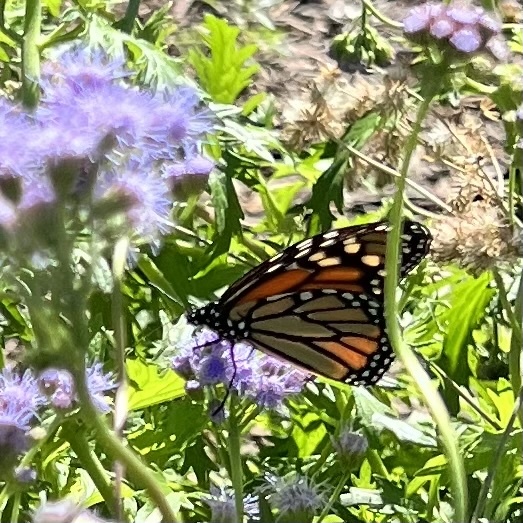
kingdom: Animalia
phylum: Arthropoda
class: Insecta
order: Lepidoptera
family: Nymphalidae
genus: Danaus
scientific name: Danaus plexippus
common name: Monarch
